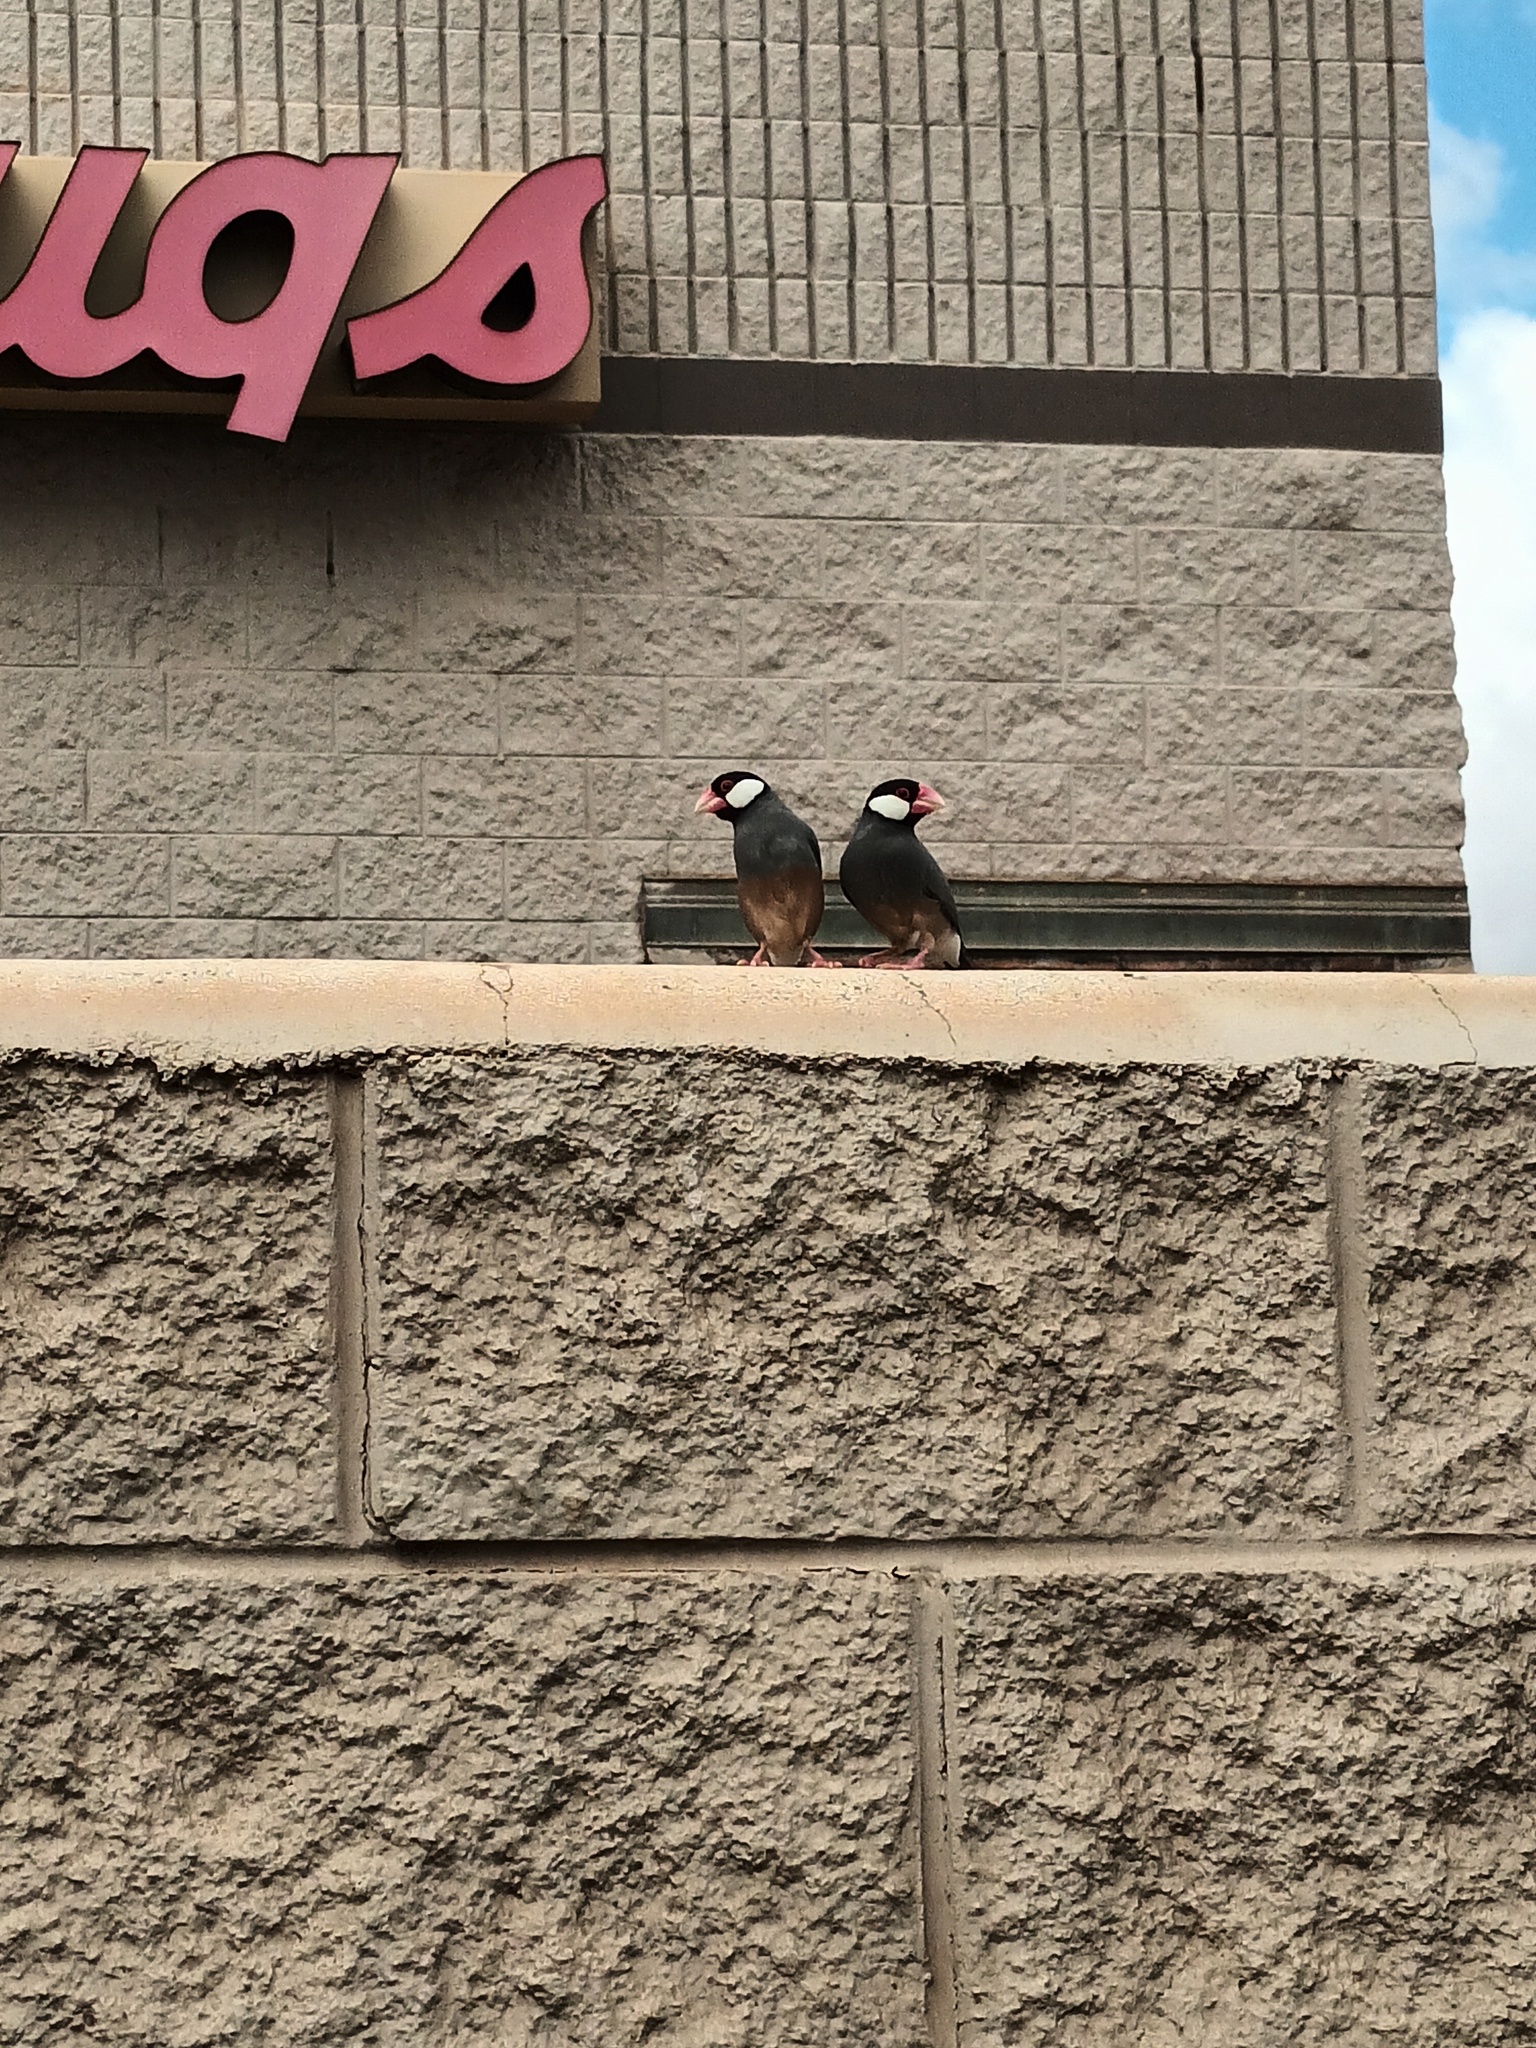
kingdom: Animalia
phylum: Chordata
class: Aves
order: Passeriformes
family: Estrildidae
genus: Lonchura
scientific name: Lonchura oryzivora
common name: Java sparrow
